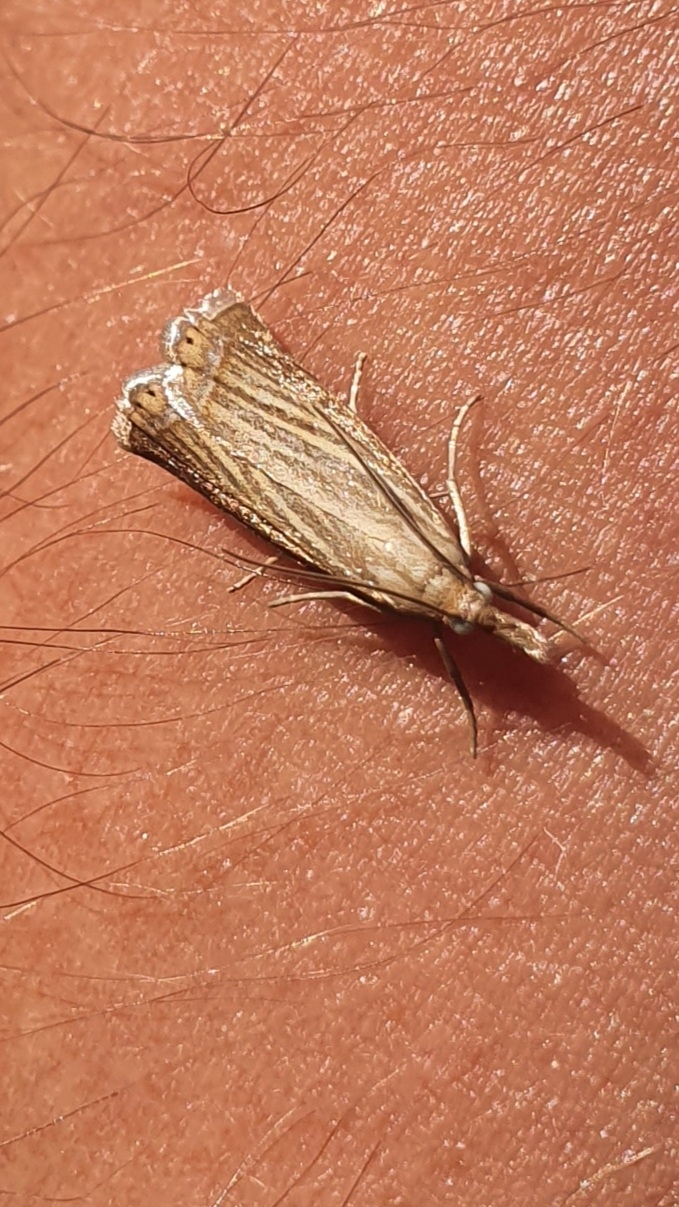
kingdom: Animalia
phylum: Arthropoda
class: Insecta
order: Lepidoptera
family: Crambidae
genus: Chrysoteuchia
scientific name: Chrysoteuchia culmella
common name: Garden grass-veneer
